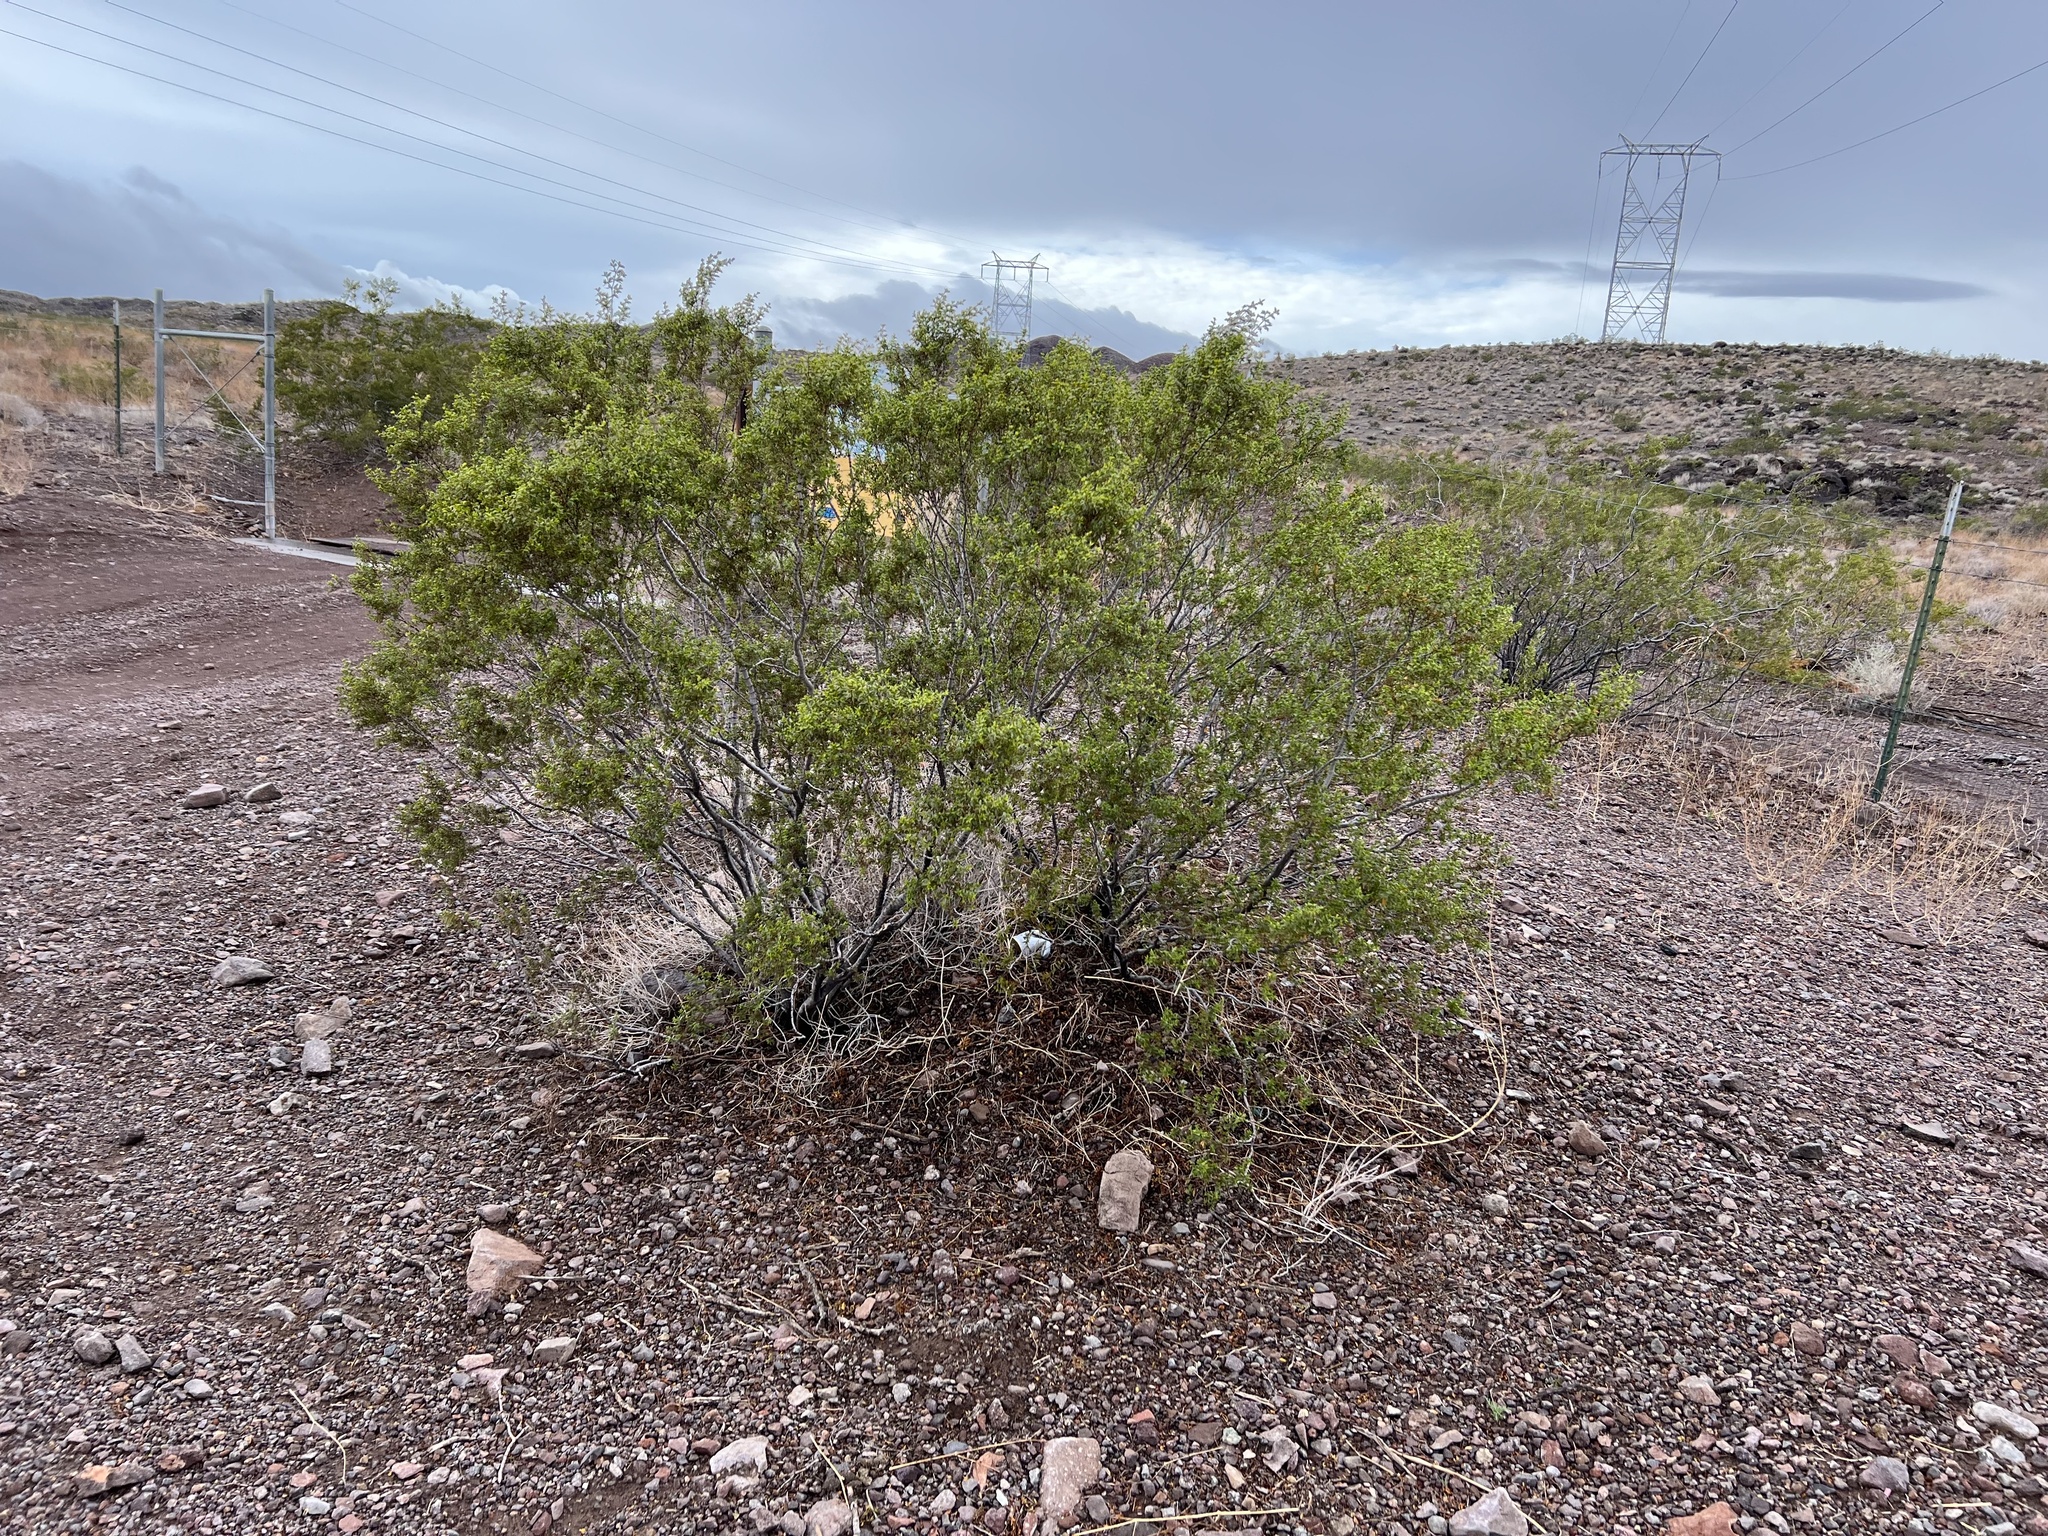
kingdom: Plantae
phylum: Tracheophyta
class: Magnoliopsida
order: Zygophyllales
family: Zygophyllaceae
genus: Larrea
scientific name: Larrea tridentata
